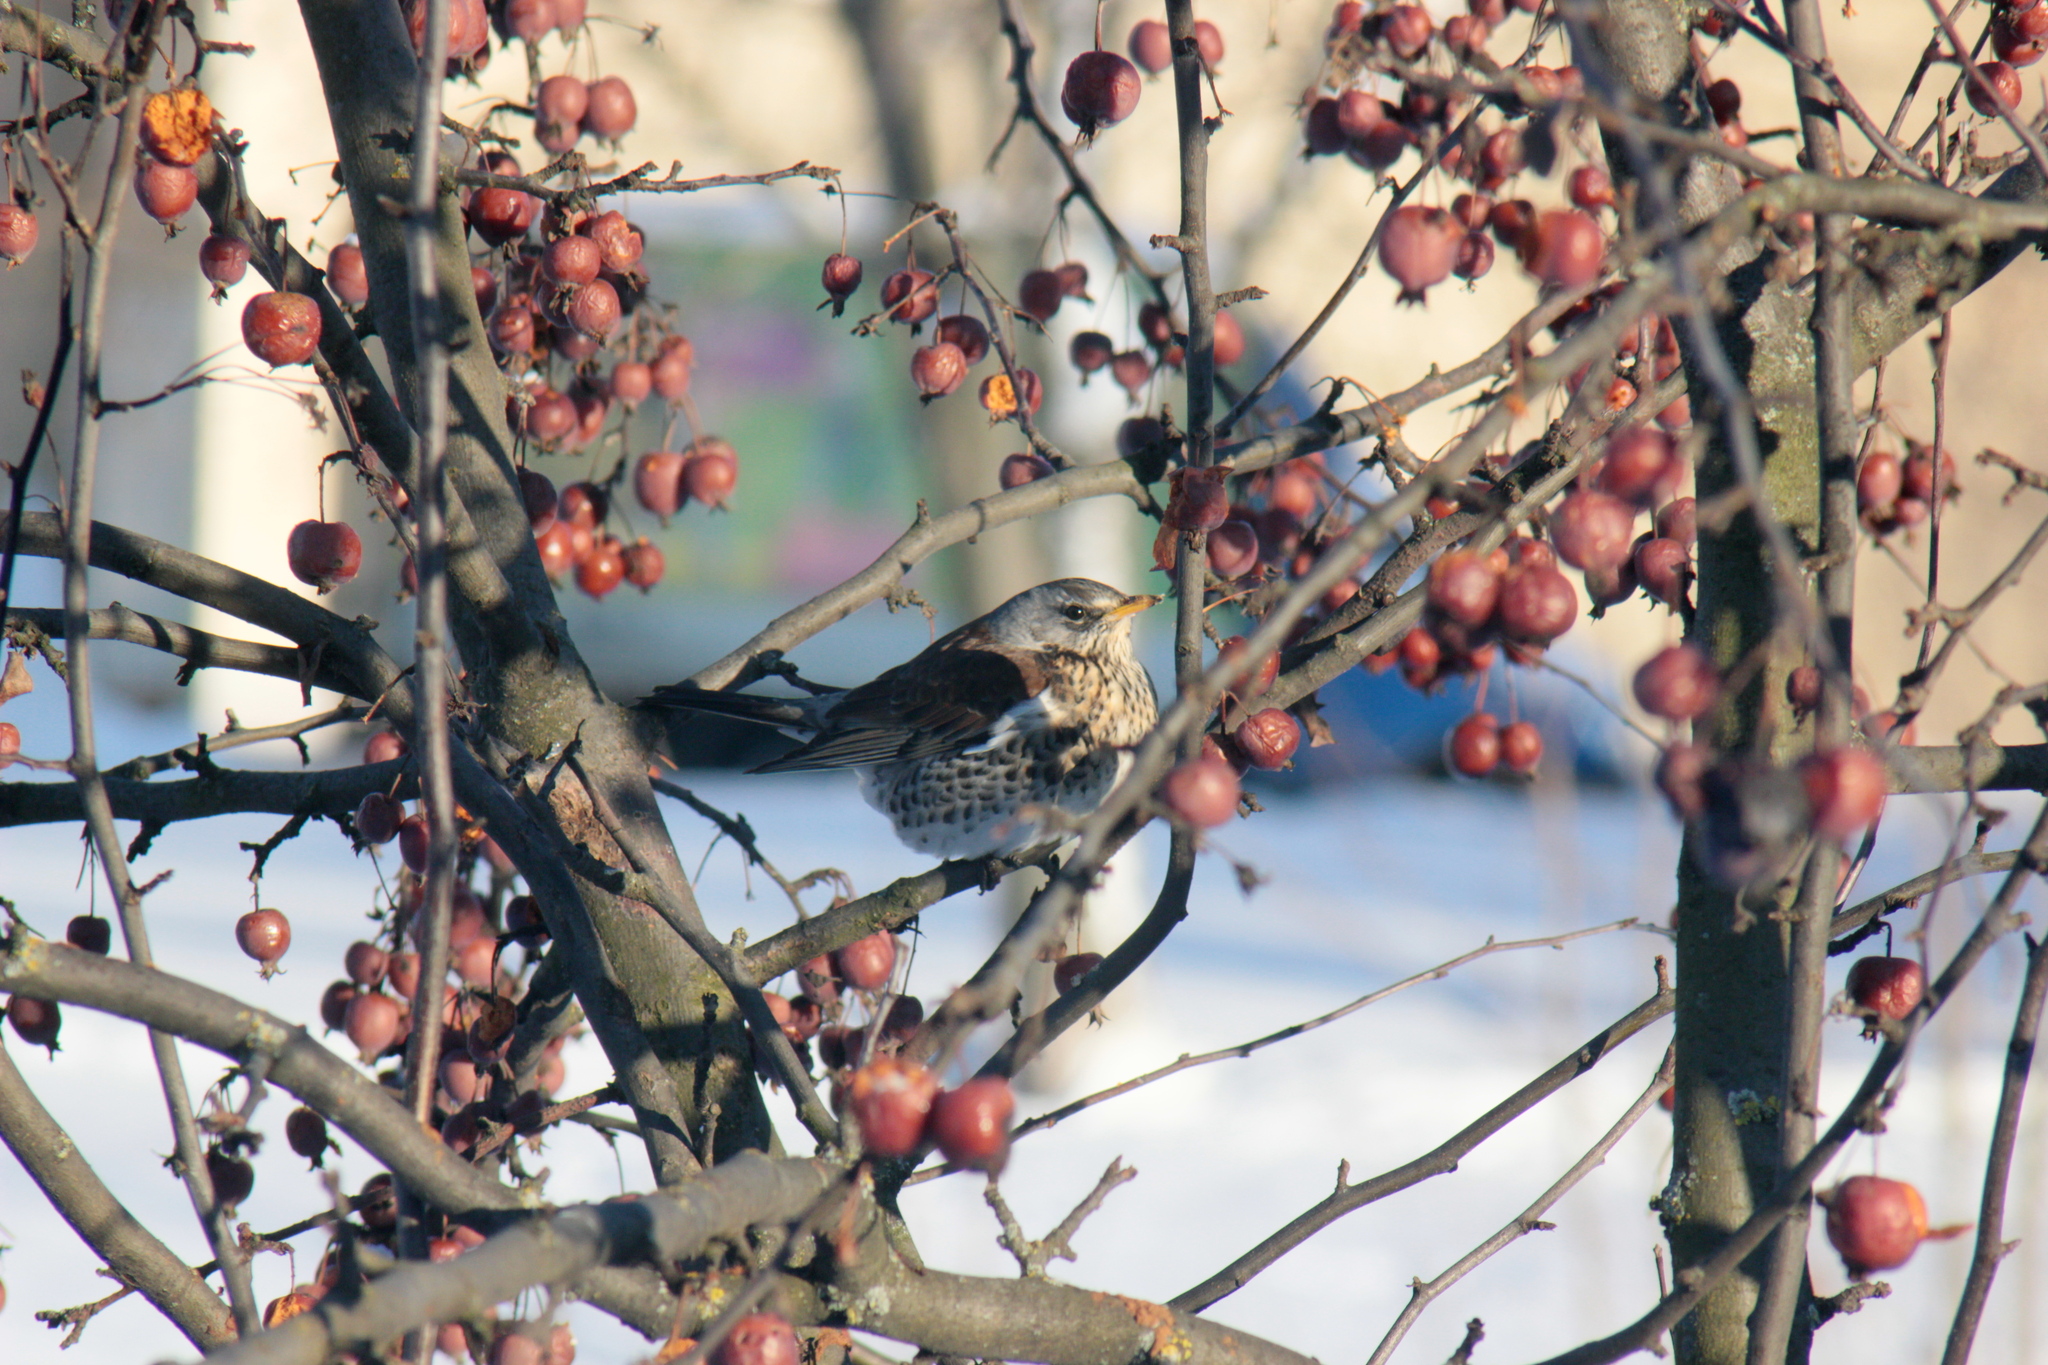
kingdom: Animalia
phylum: Chordata
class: Aves
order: Passeriformes
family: Turdidae
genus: Turdus
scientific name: Turdus pilaris
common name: Fieldfare
